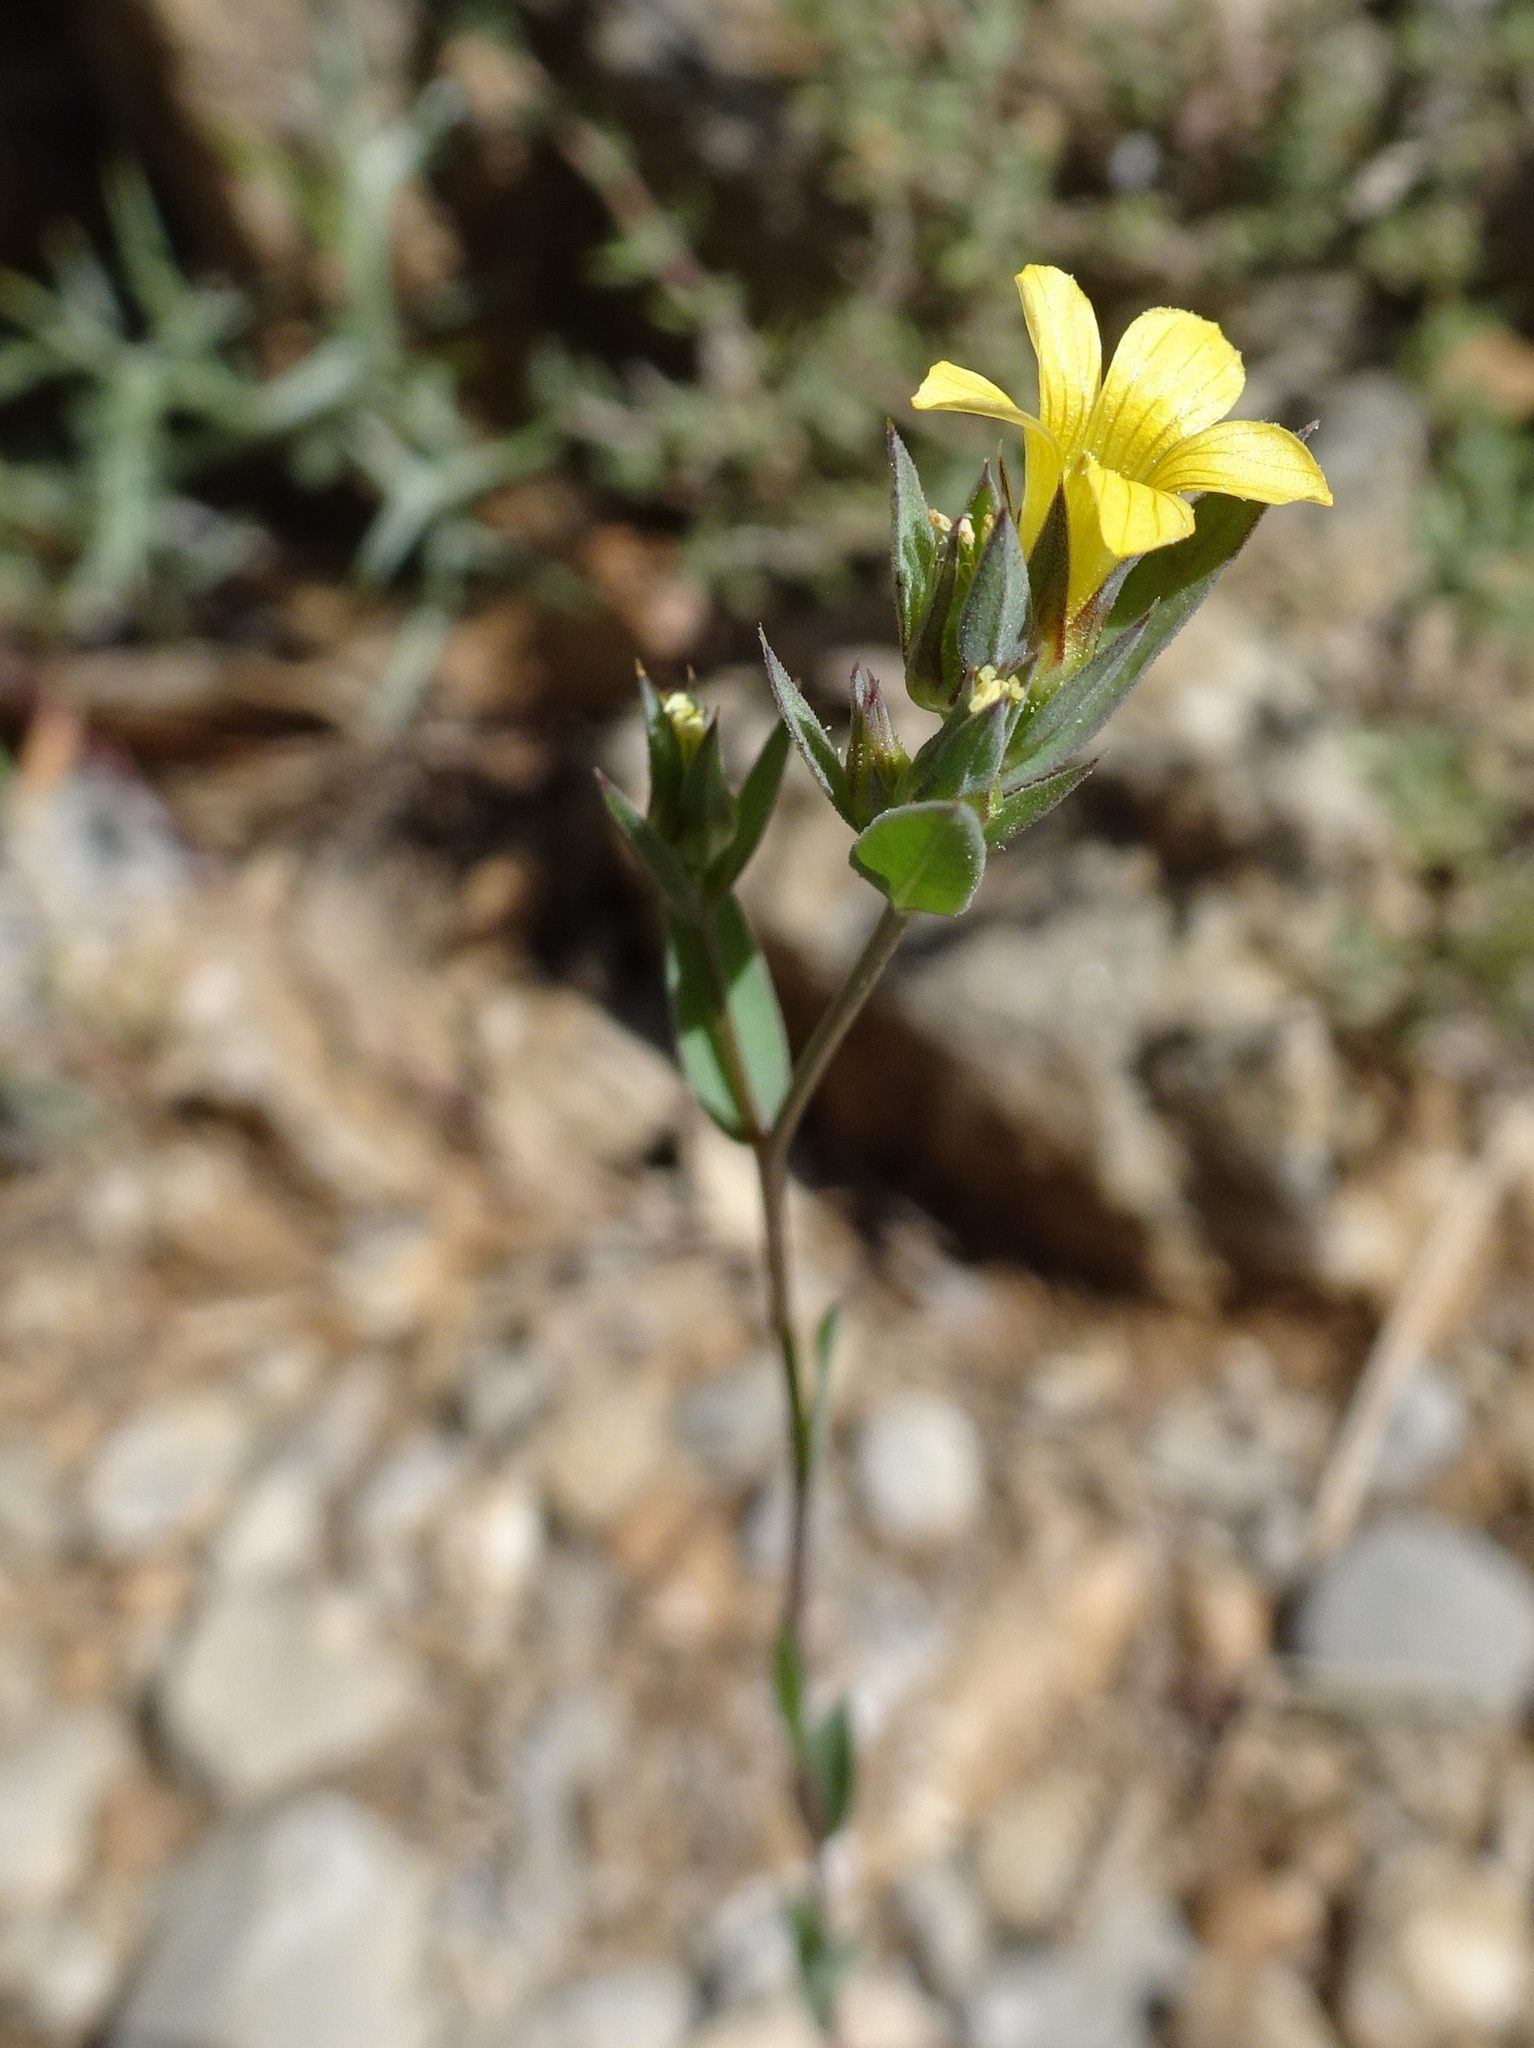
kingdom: Plantae
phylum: Tracheophyta
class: Magnoliopsida
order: Malpighiales
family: Linaceae
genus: Linum
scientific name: Linum strictum
